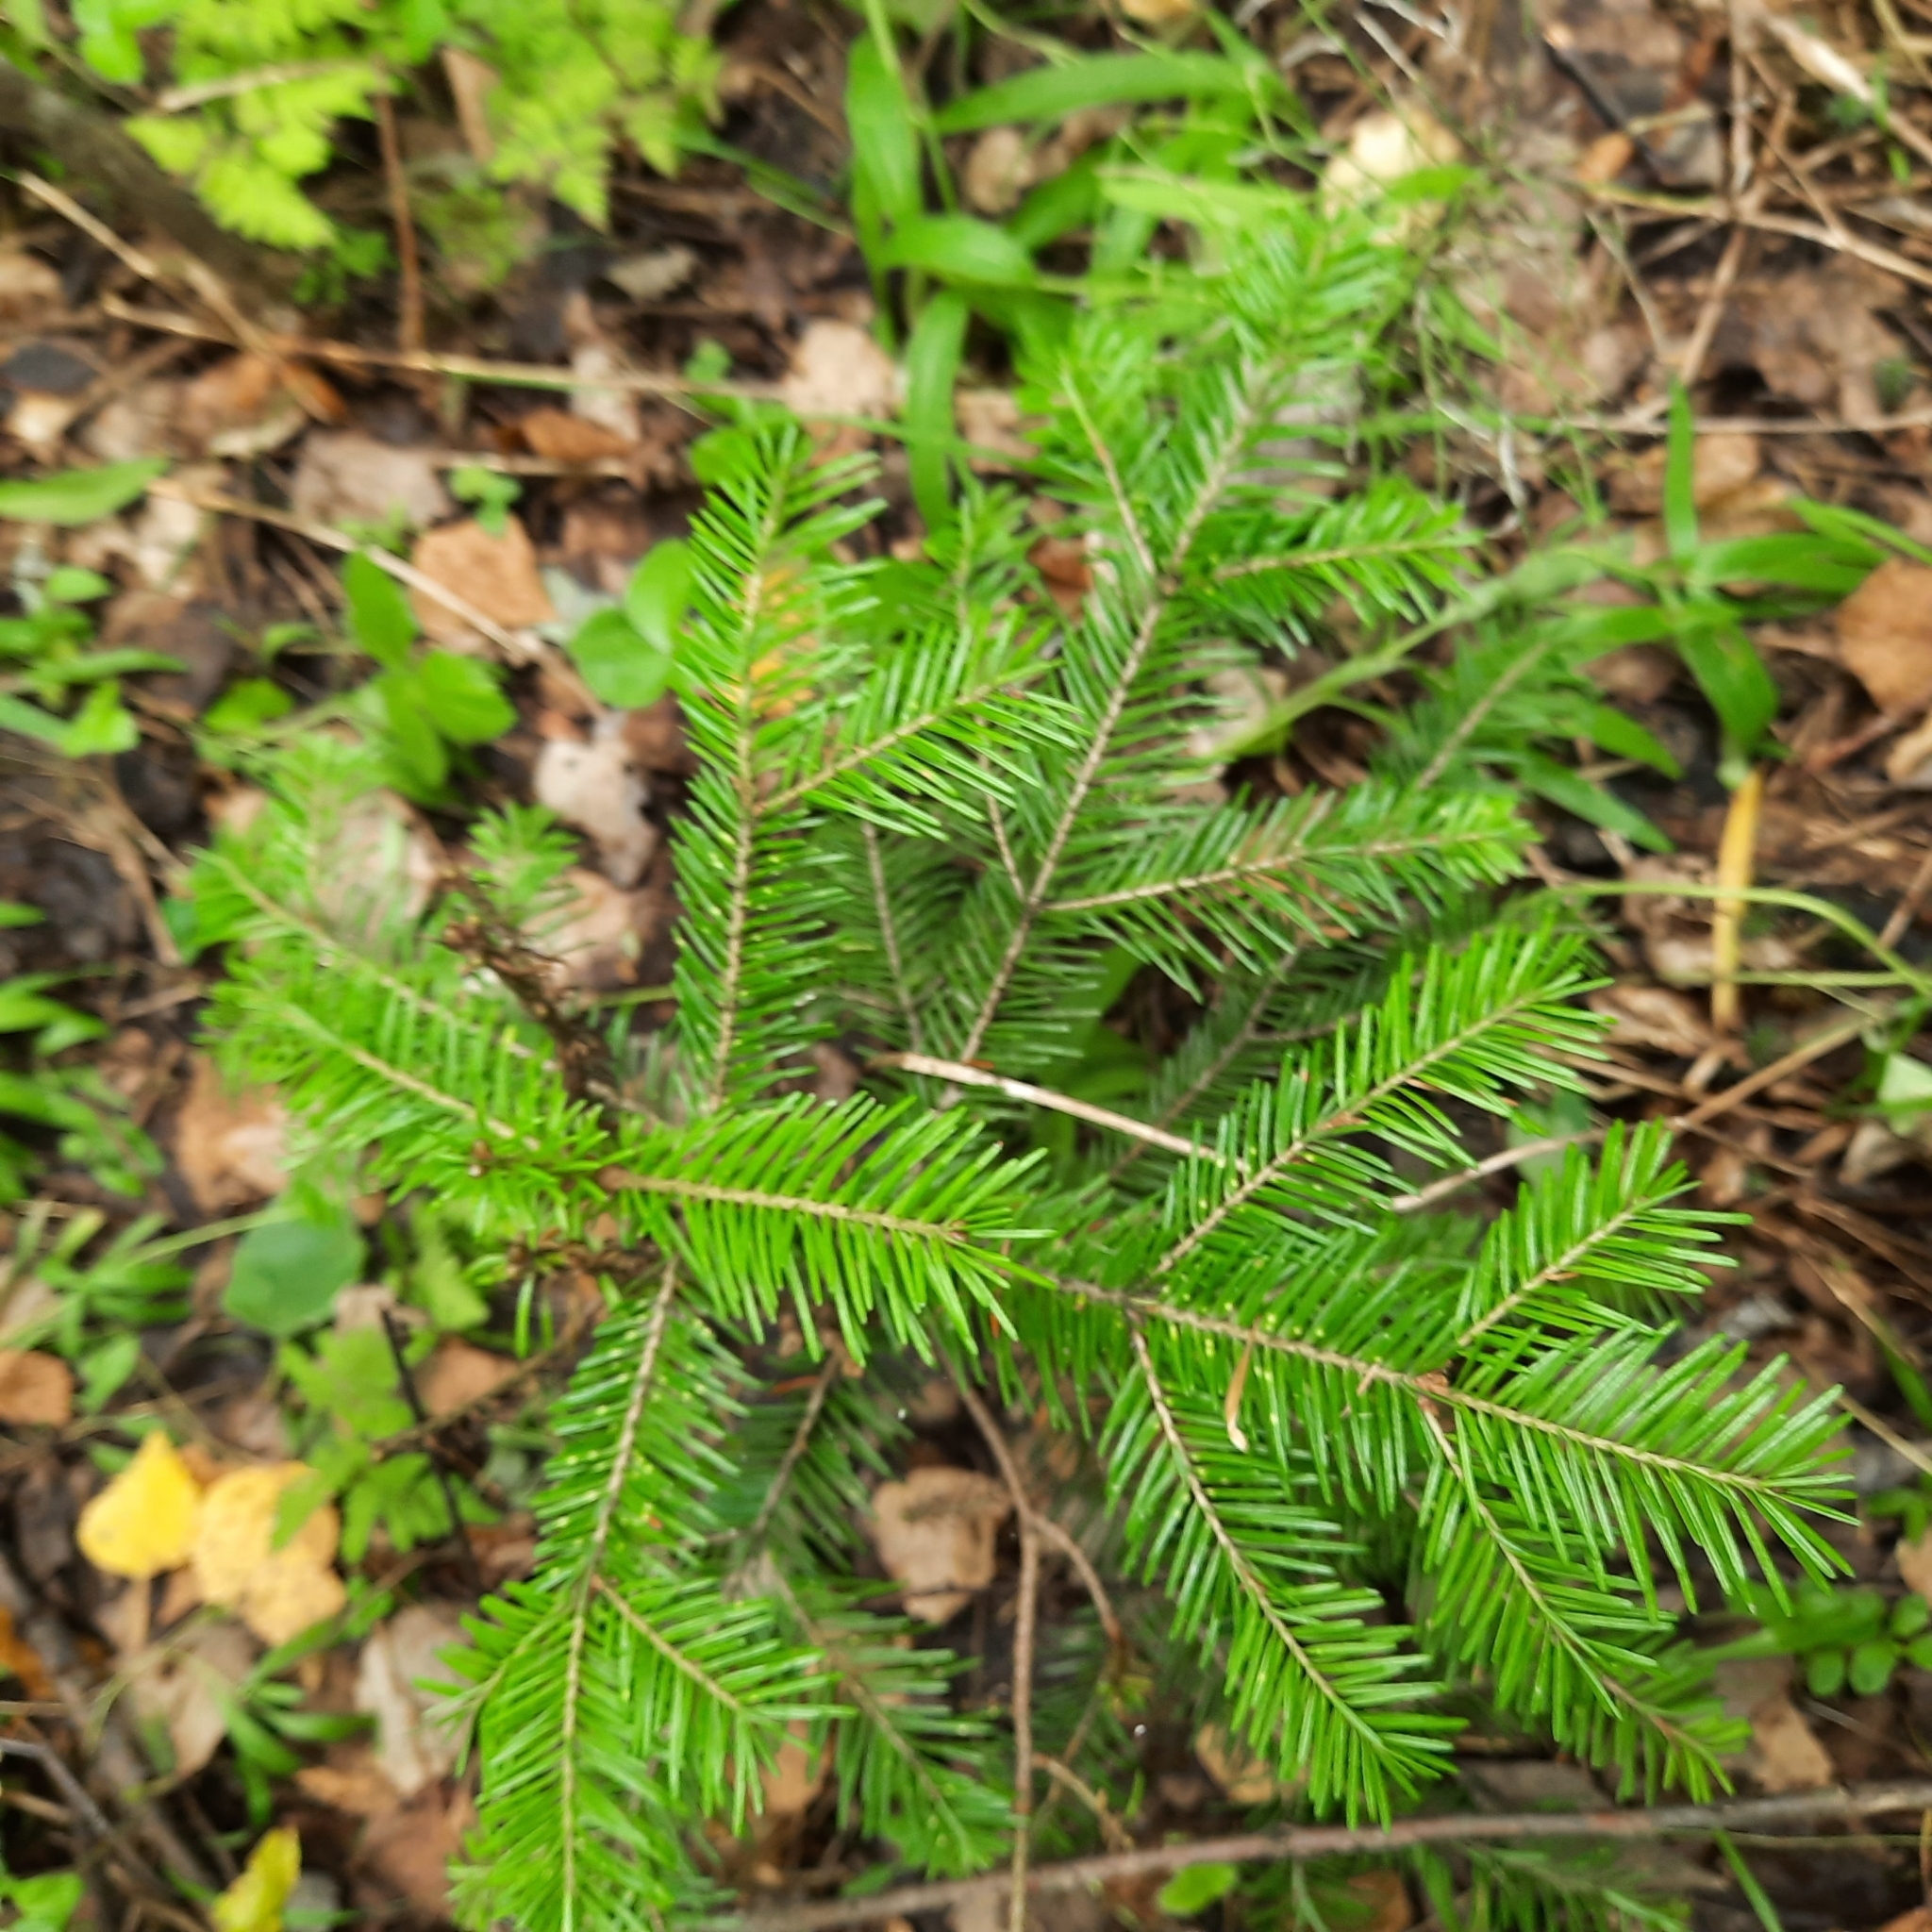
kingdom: Plantae
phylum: Tracheophyta
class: Pinopsida
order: Pinales
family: Pinaceae
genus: Abies
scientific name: Abies sibirica
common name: Siberian fir
